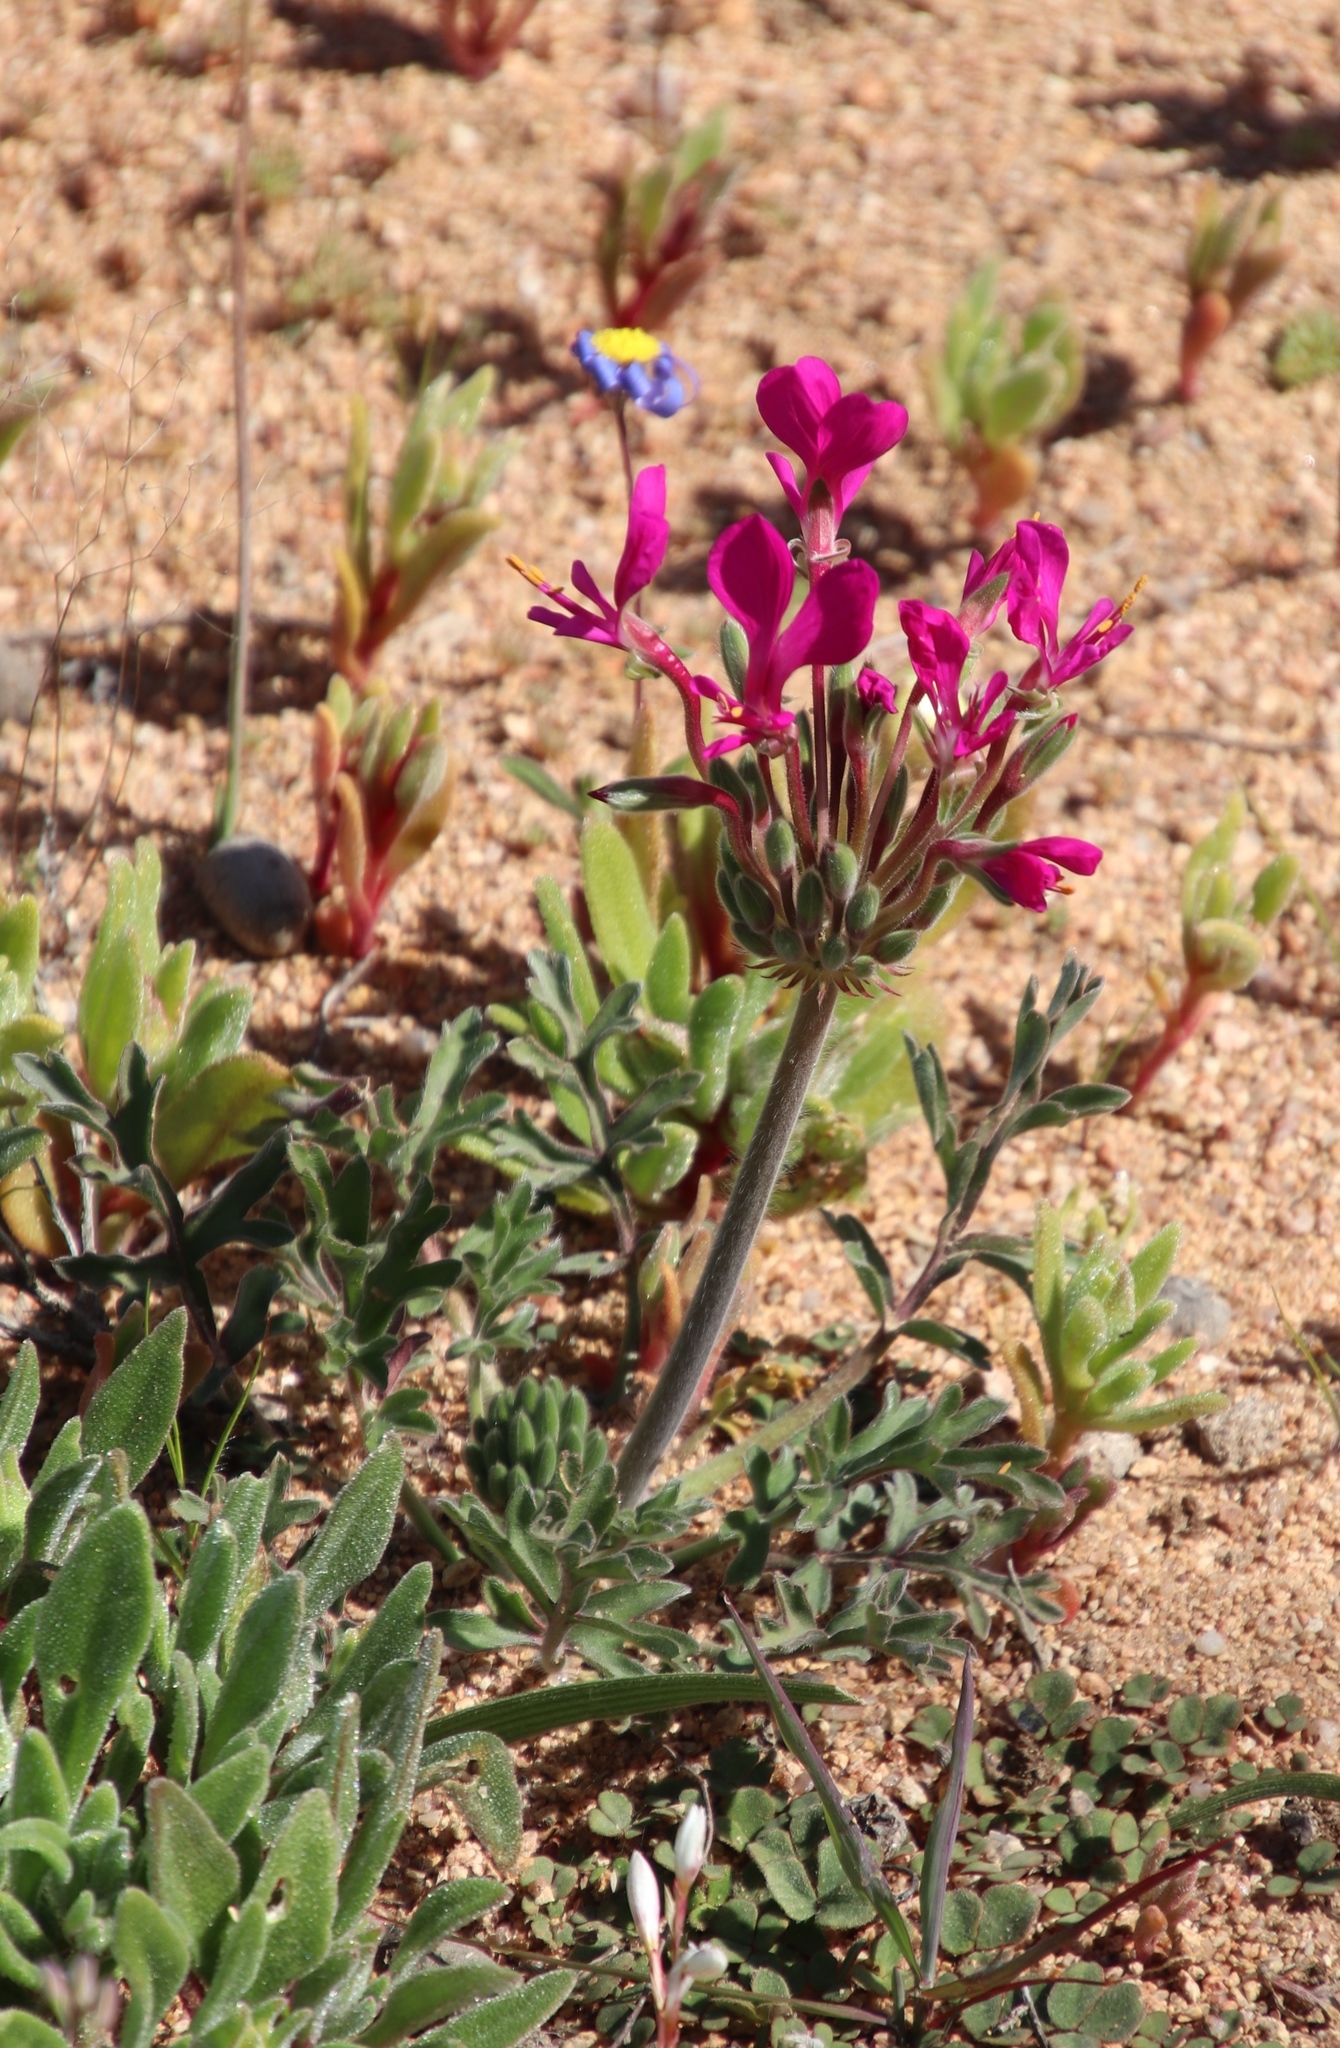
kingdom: Plantae
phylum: Tracheophyta
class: Magnoliopsida
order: Geraniales
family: Geraniaceae
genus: Pelargonium
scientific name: Pelargonium incrassatum
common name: Namaqualand beauty
